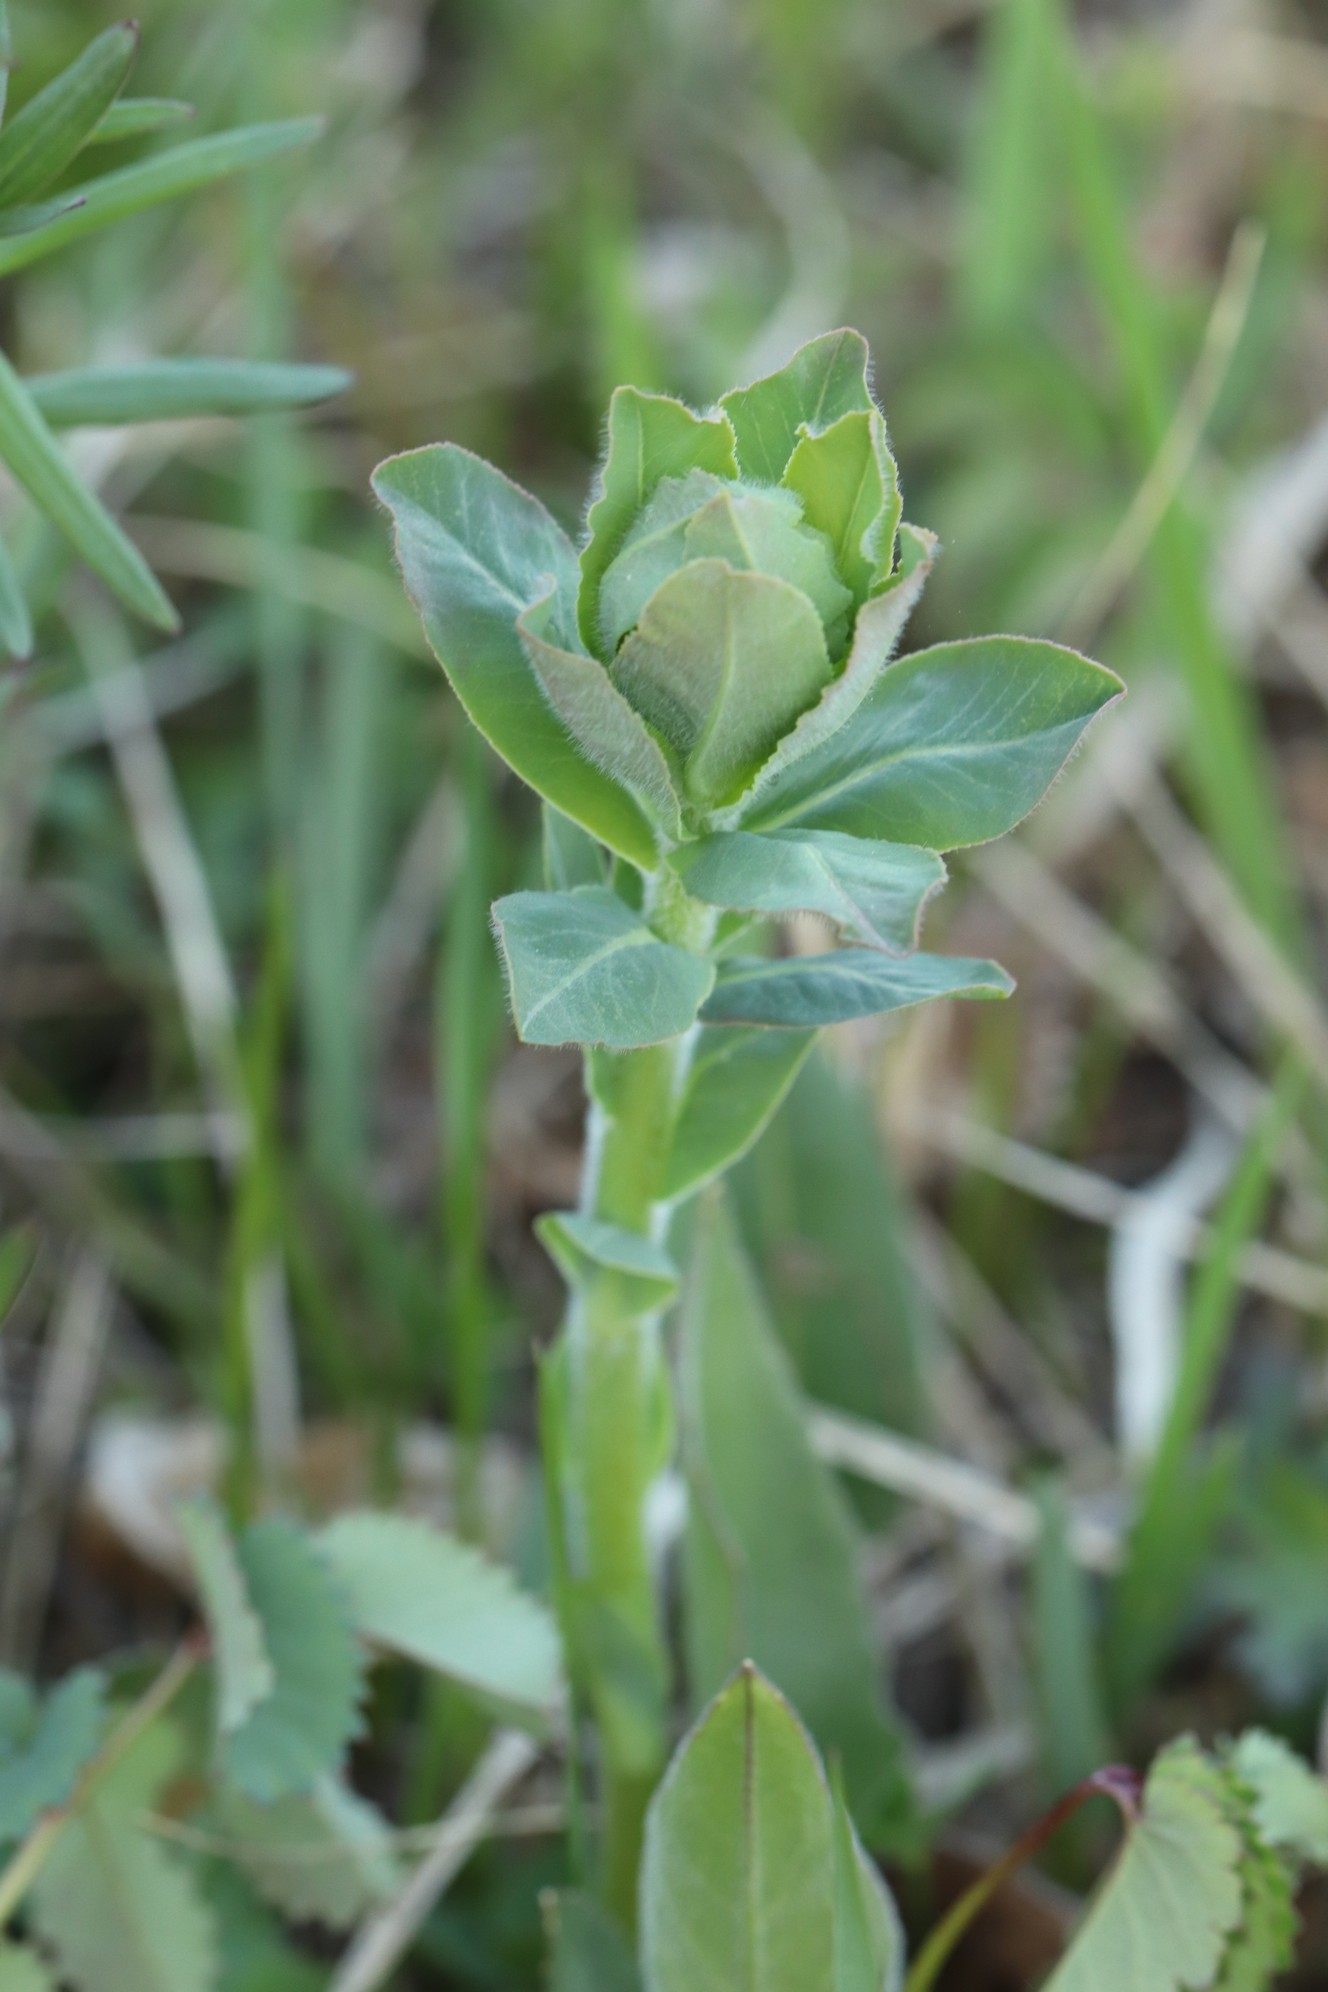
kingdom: Plantae
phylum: Tracheophyta
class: Magnoliopsida
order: Malpighiales
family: Euphorbiaceae
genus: Euphorbia
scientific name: Euphorbia pilosa
